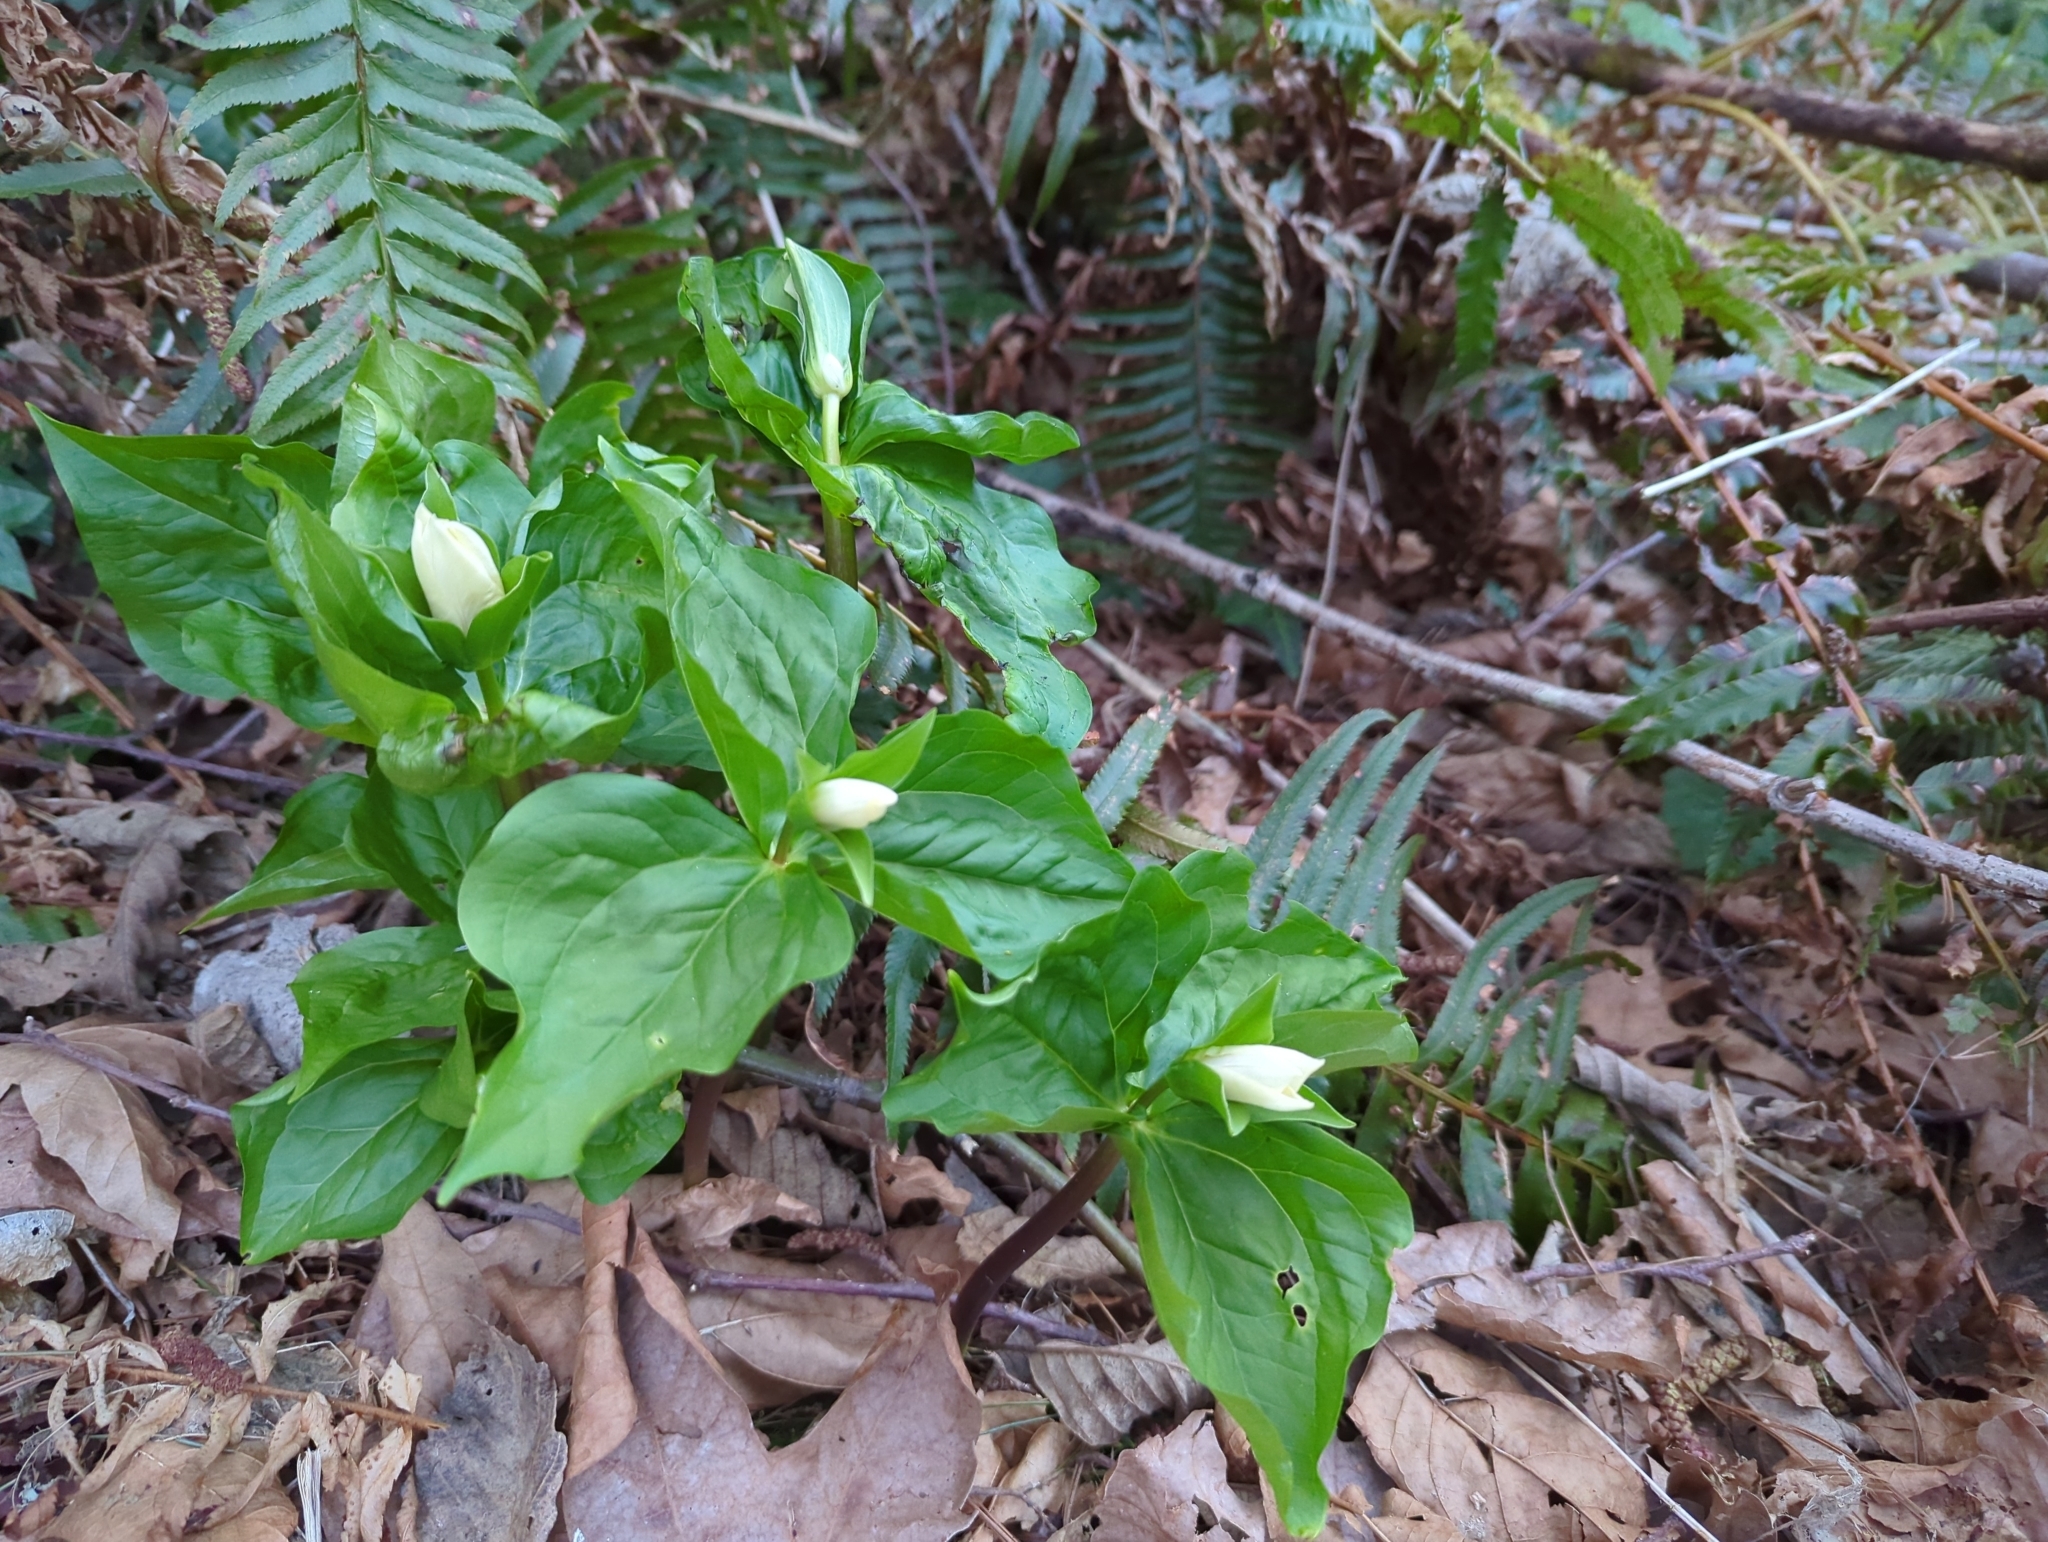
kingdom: Plantae
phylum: Tracheophyta
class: Liliopsida
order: Liliales
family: Melanthiaceae
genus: Trillium
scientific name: Trillium ovatum
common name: Pacific trillium
